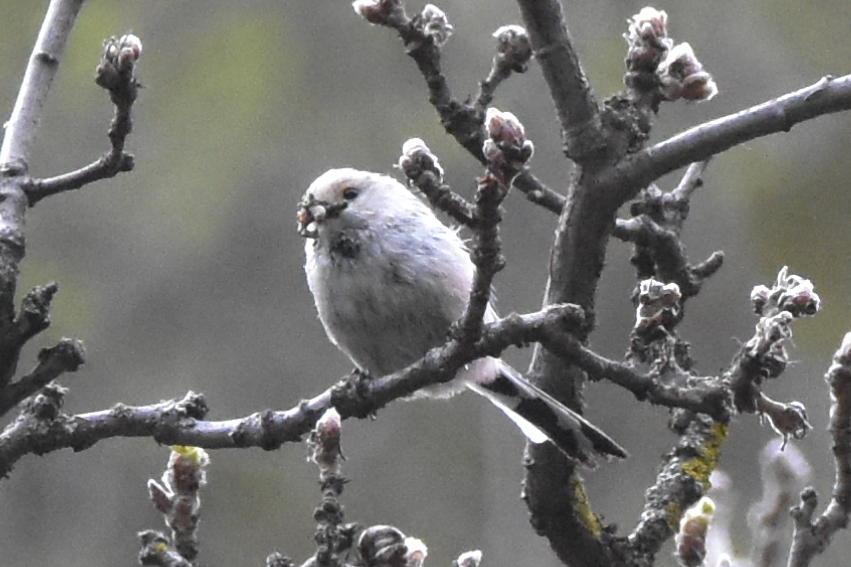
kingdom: Animalia
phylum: Chordata
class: Aves
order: Passeriformes
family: Aegithalidae
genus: Aegithalos
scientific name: Aegithalos caudatus
